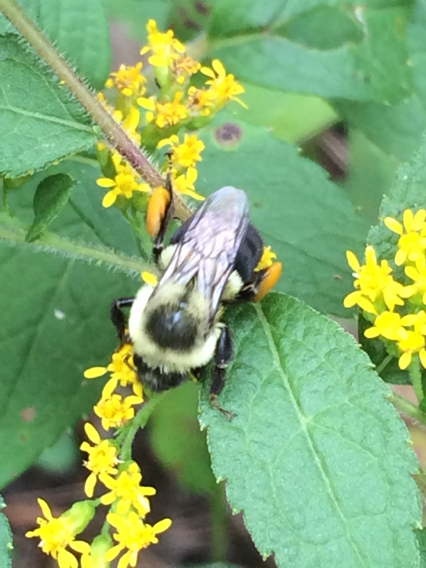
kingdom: Animalia
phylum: Arthropoda
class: Insecta
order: Hymenoptera
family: Apidae
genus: Bombus
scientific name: Bombus impatiens
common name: Common eastern bumble bee
